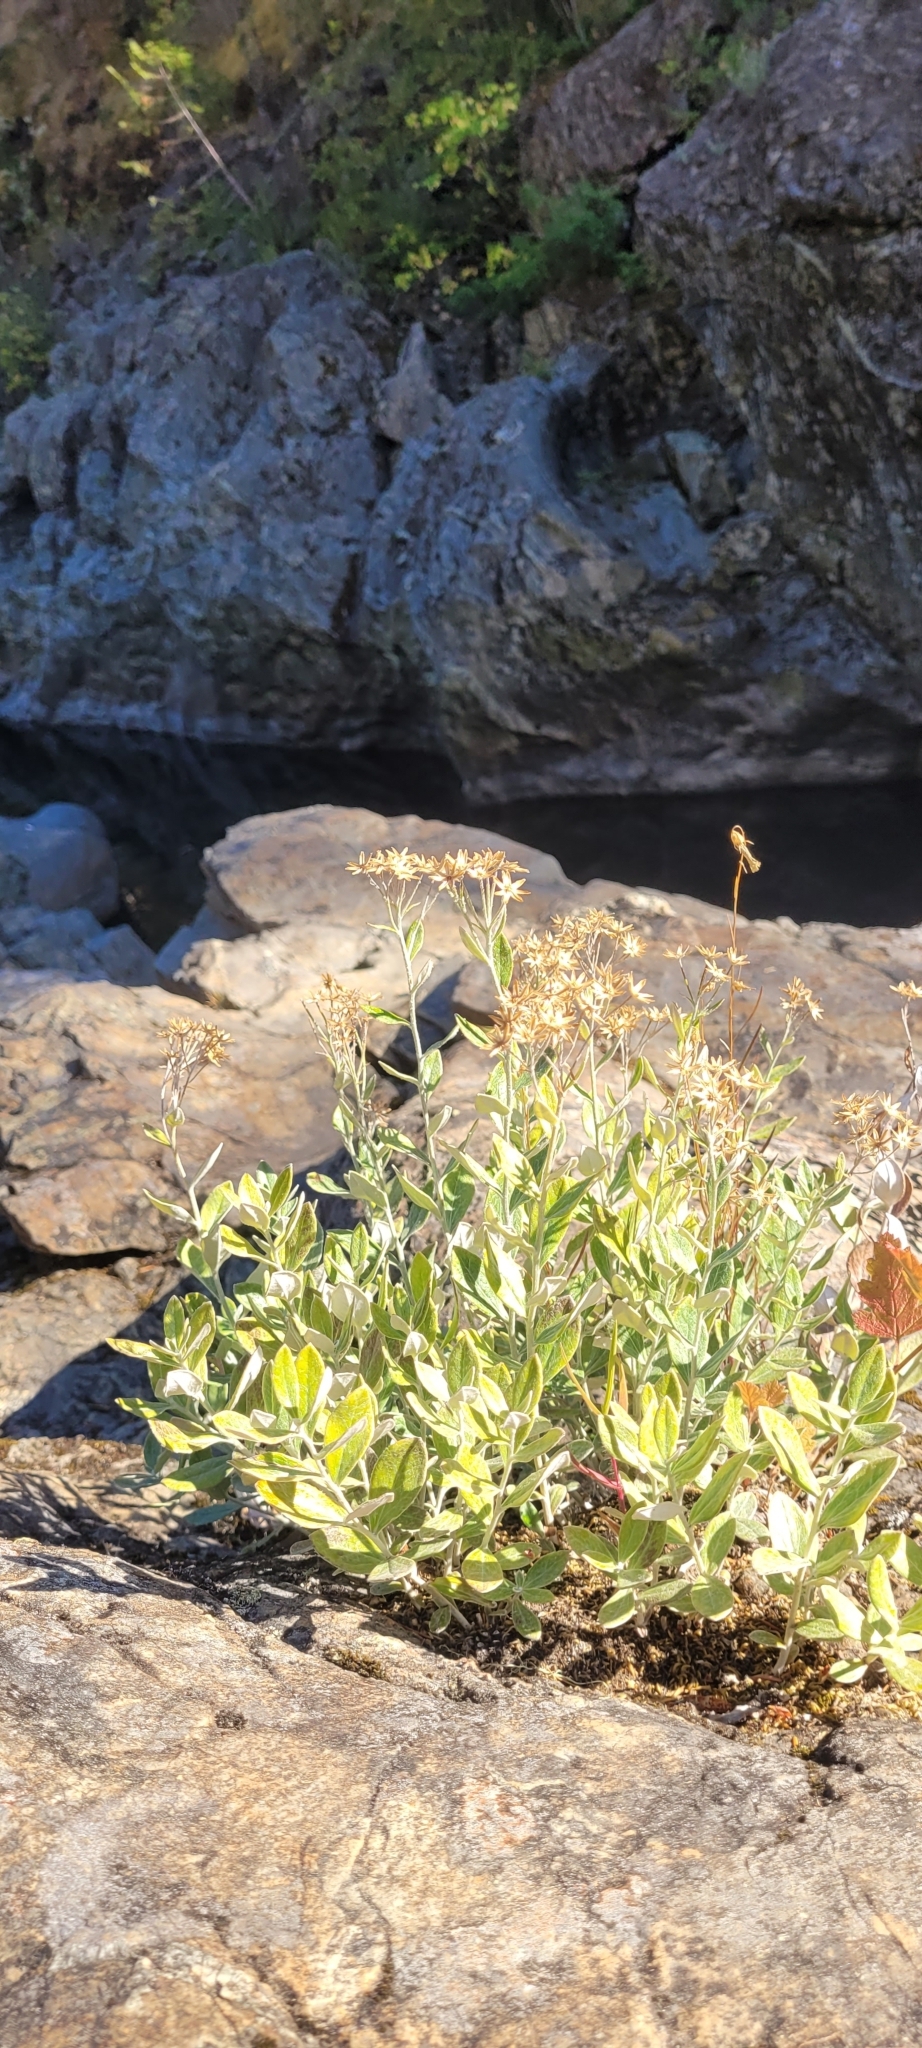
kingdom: Plantae
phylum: Tracheophyta
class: Magnoliopsida
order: Asterales
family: Asteraceae
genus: Luina
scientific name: Luina hypoleuca
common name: Little-leaved luina
